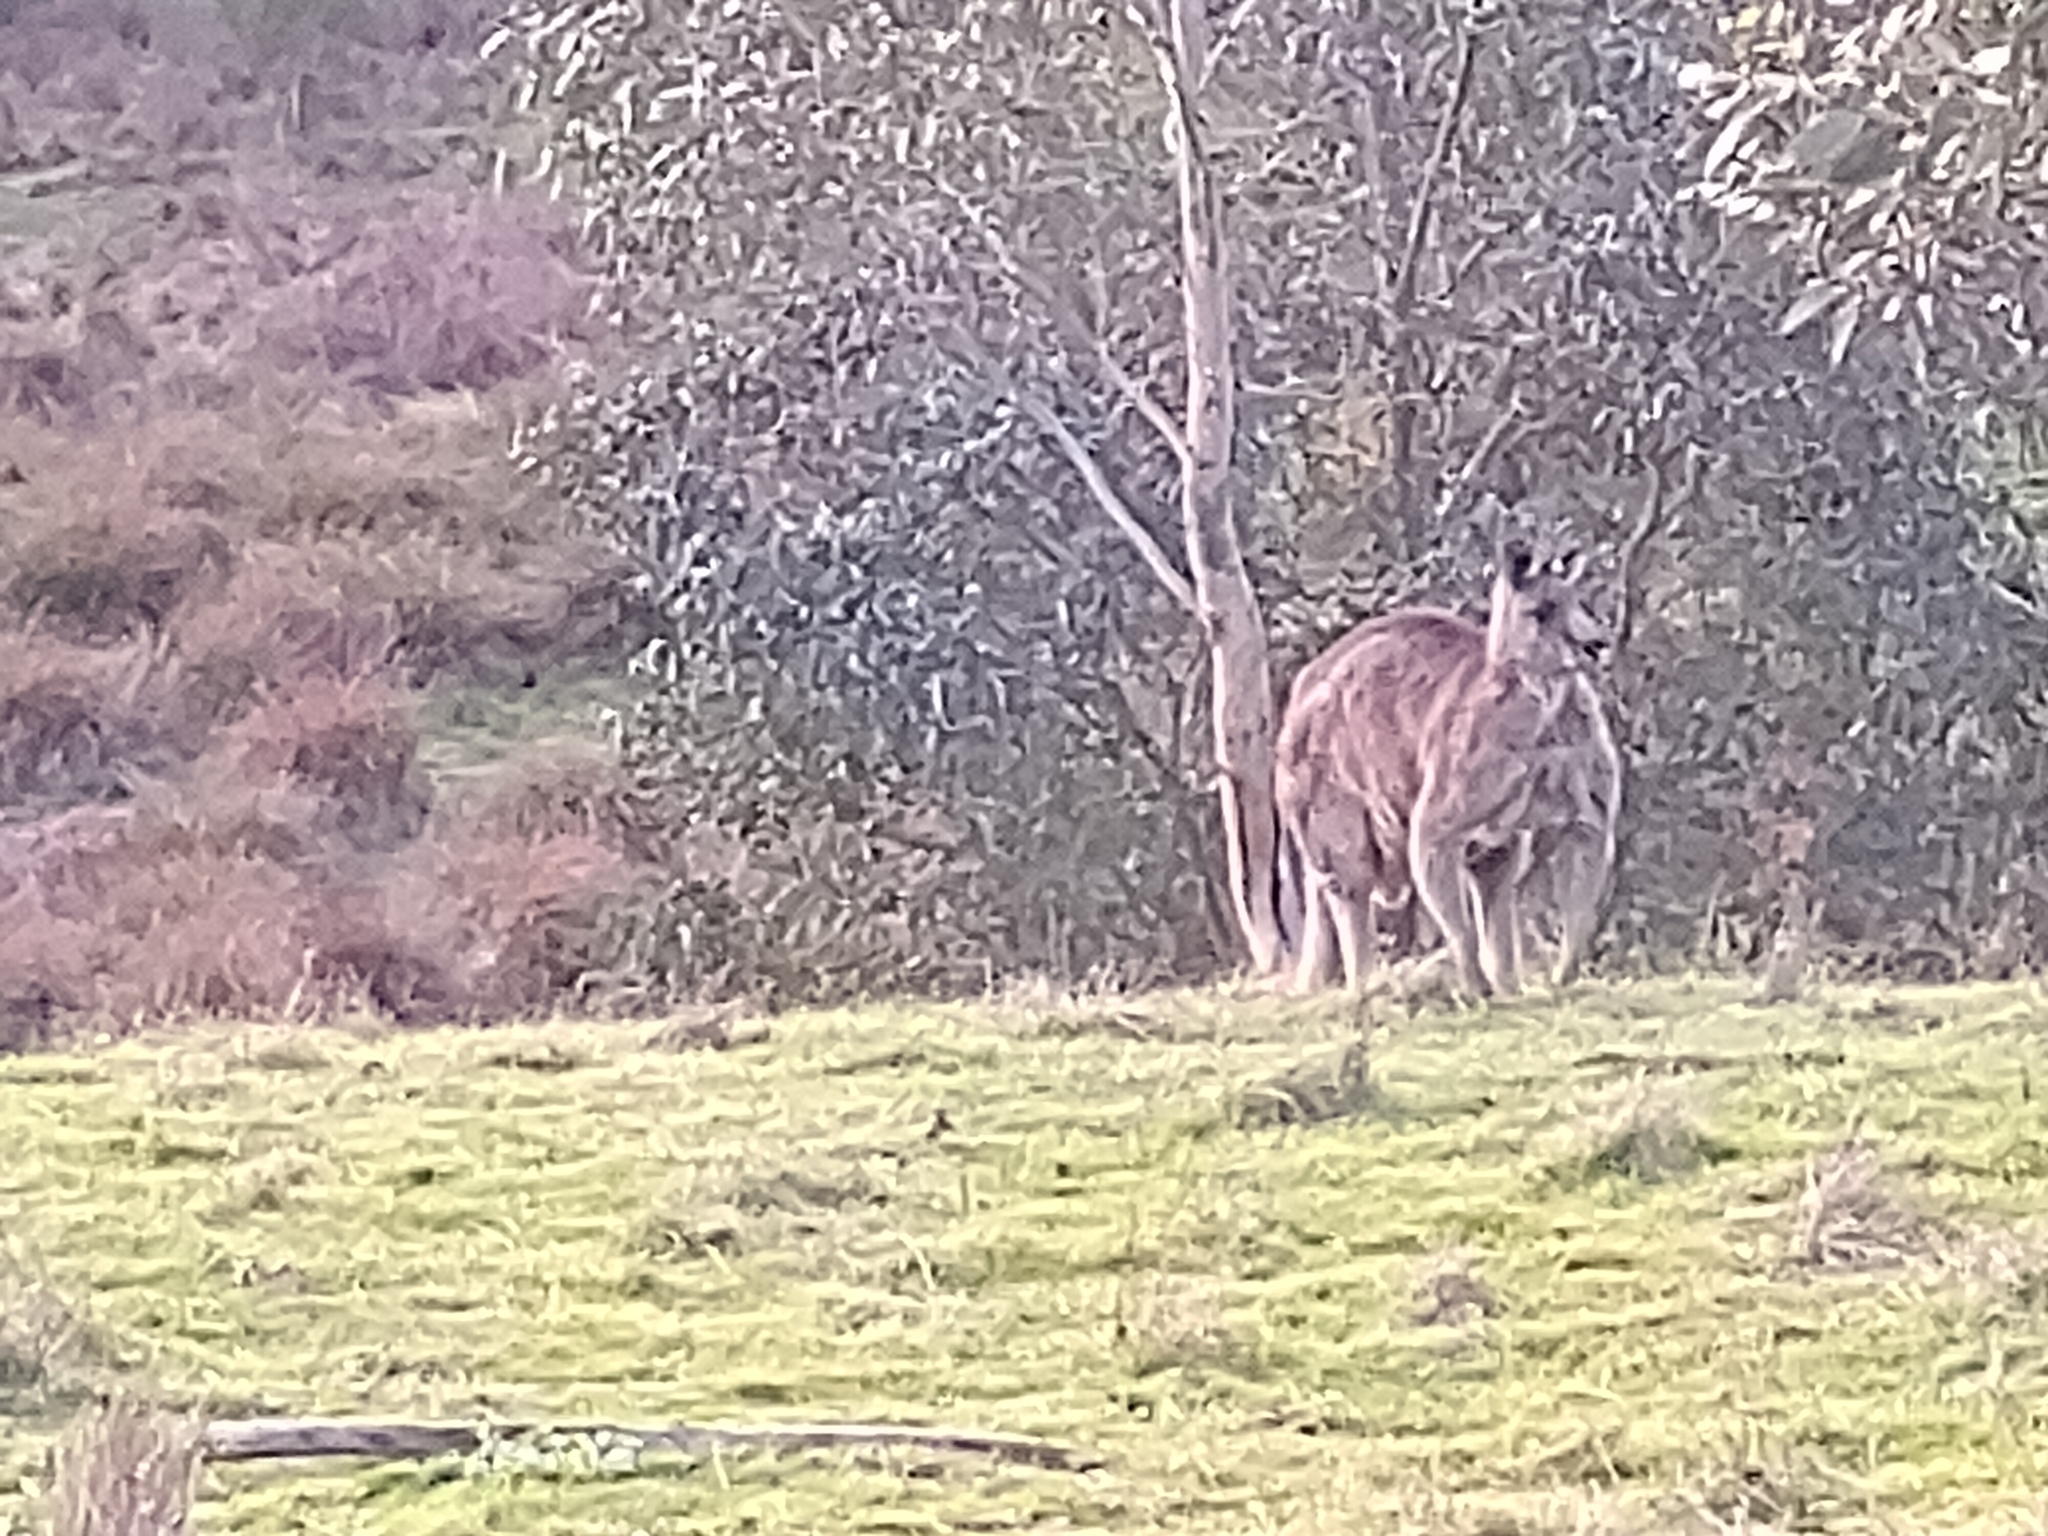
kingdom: Animalia
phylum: Chordata
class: Mammalia
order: Diprotodontia
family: Macropodidae
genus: Macropus
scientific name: Macropus giganteus
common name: Eastern grey kangaroo
